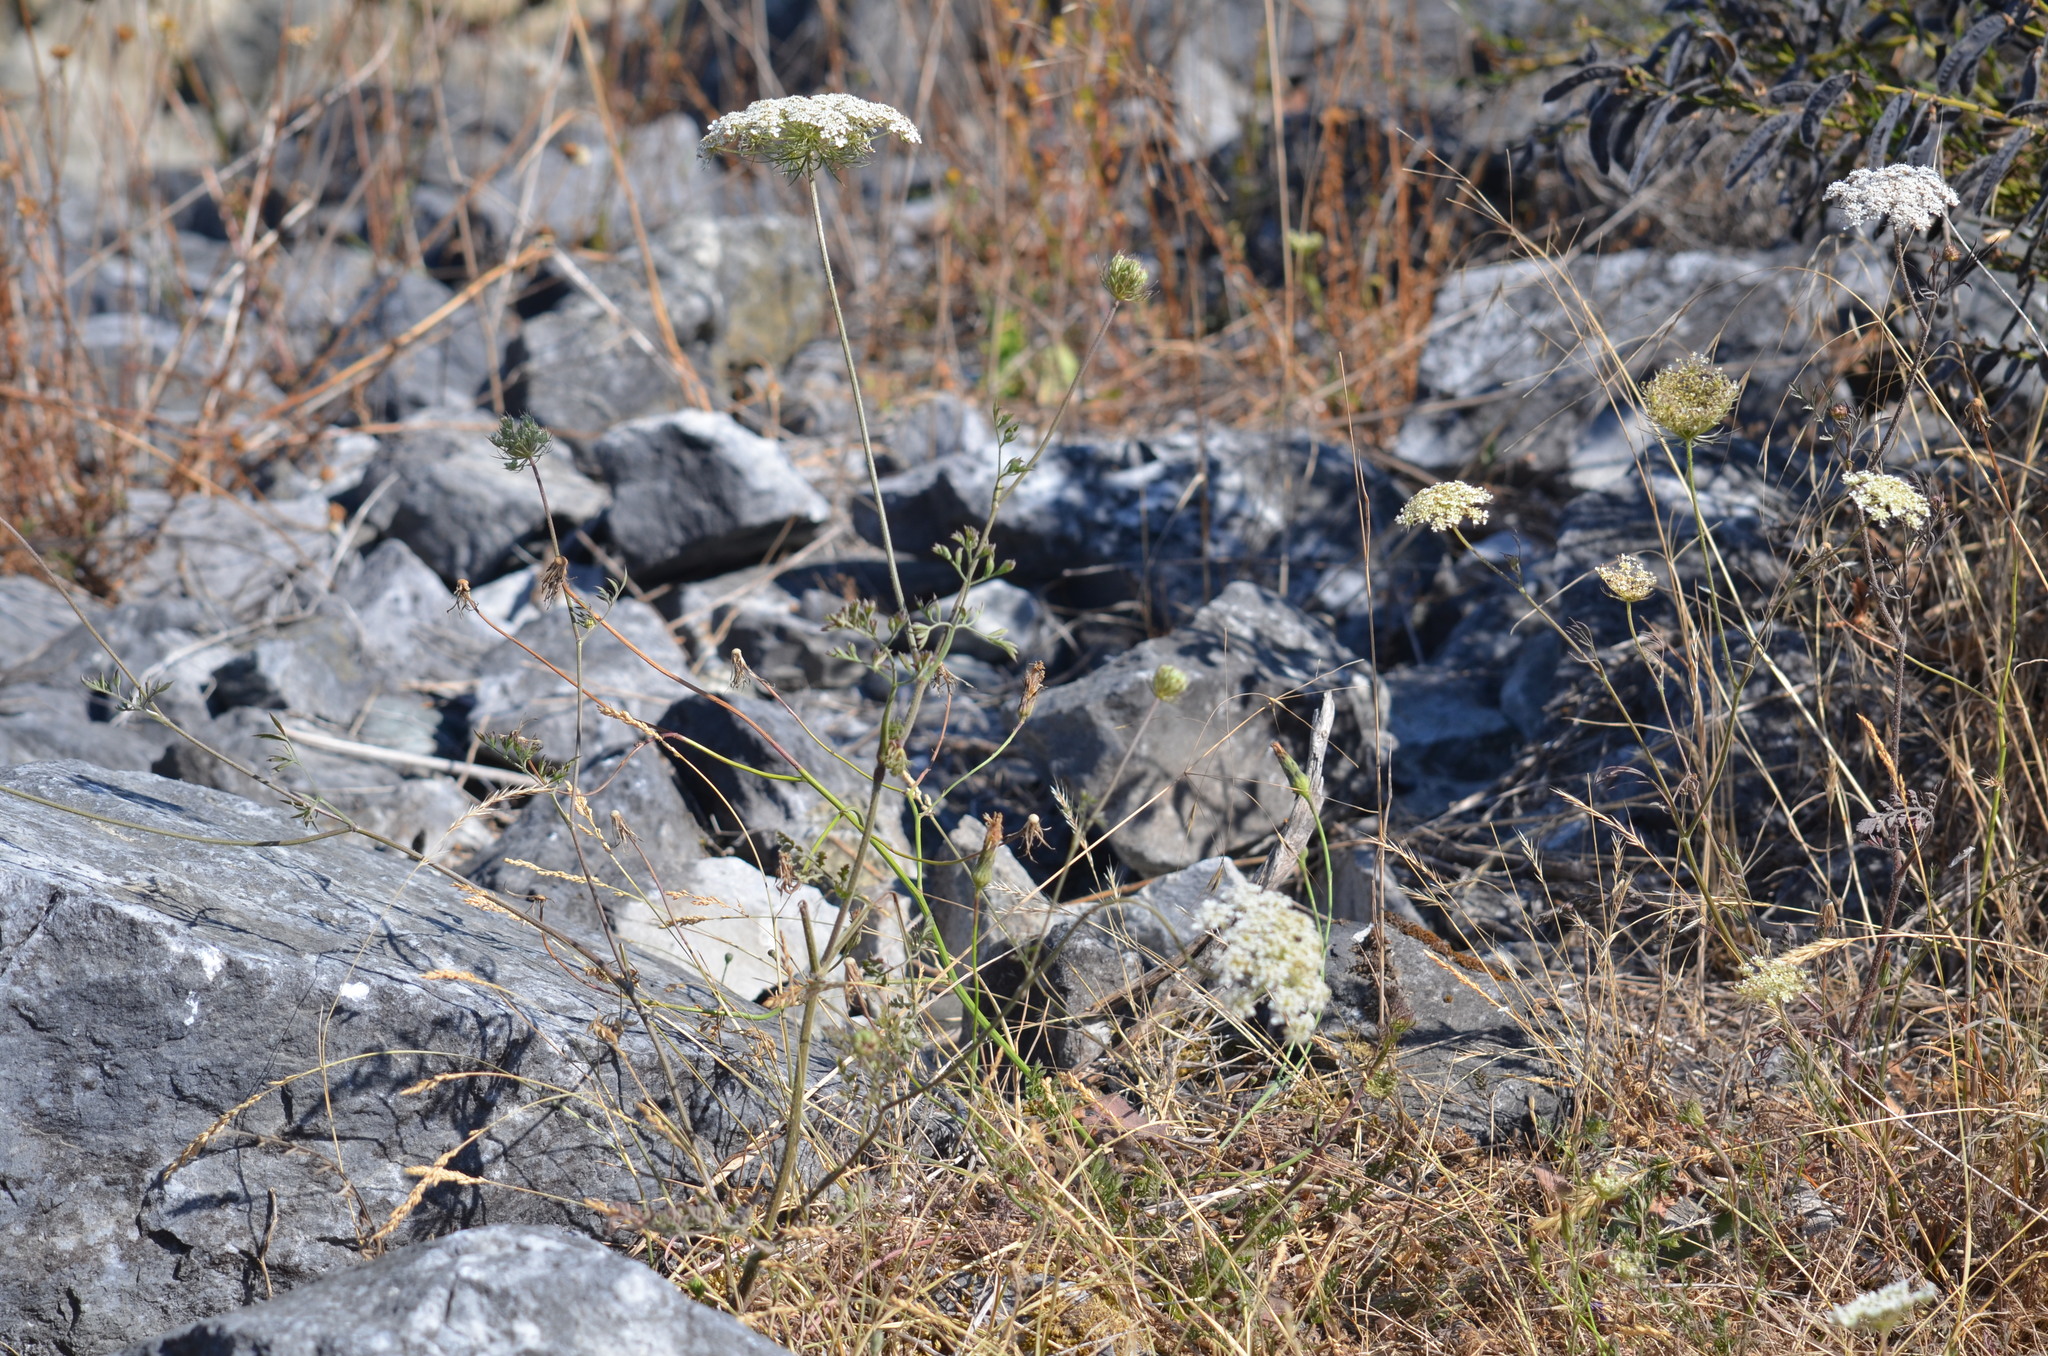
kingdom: Plantae
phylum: Tracheophyta
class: Magnoliopsida
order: Apiales
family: Apiaceae
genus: Daucus
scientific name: Daucus carota
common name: Wild carrot
